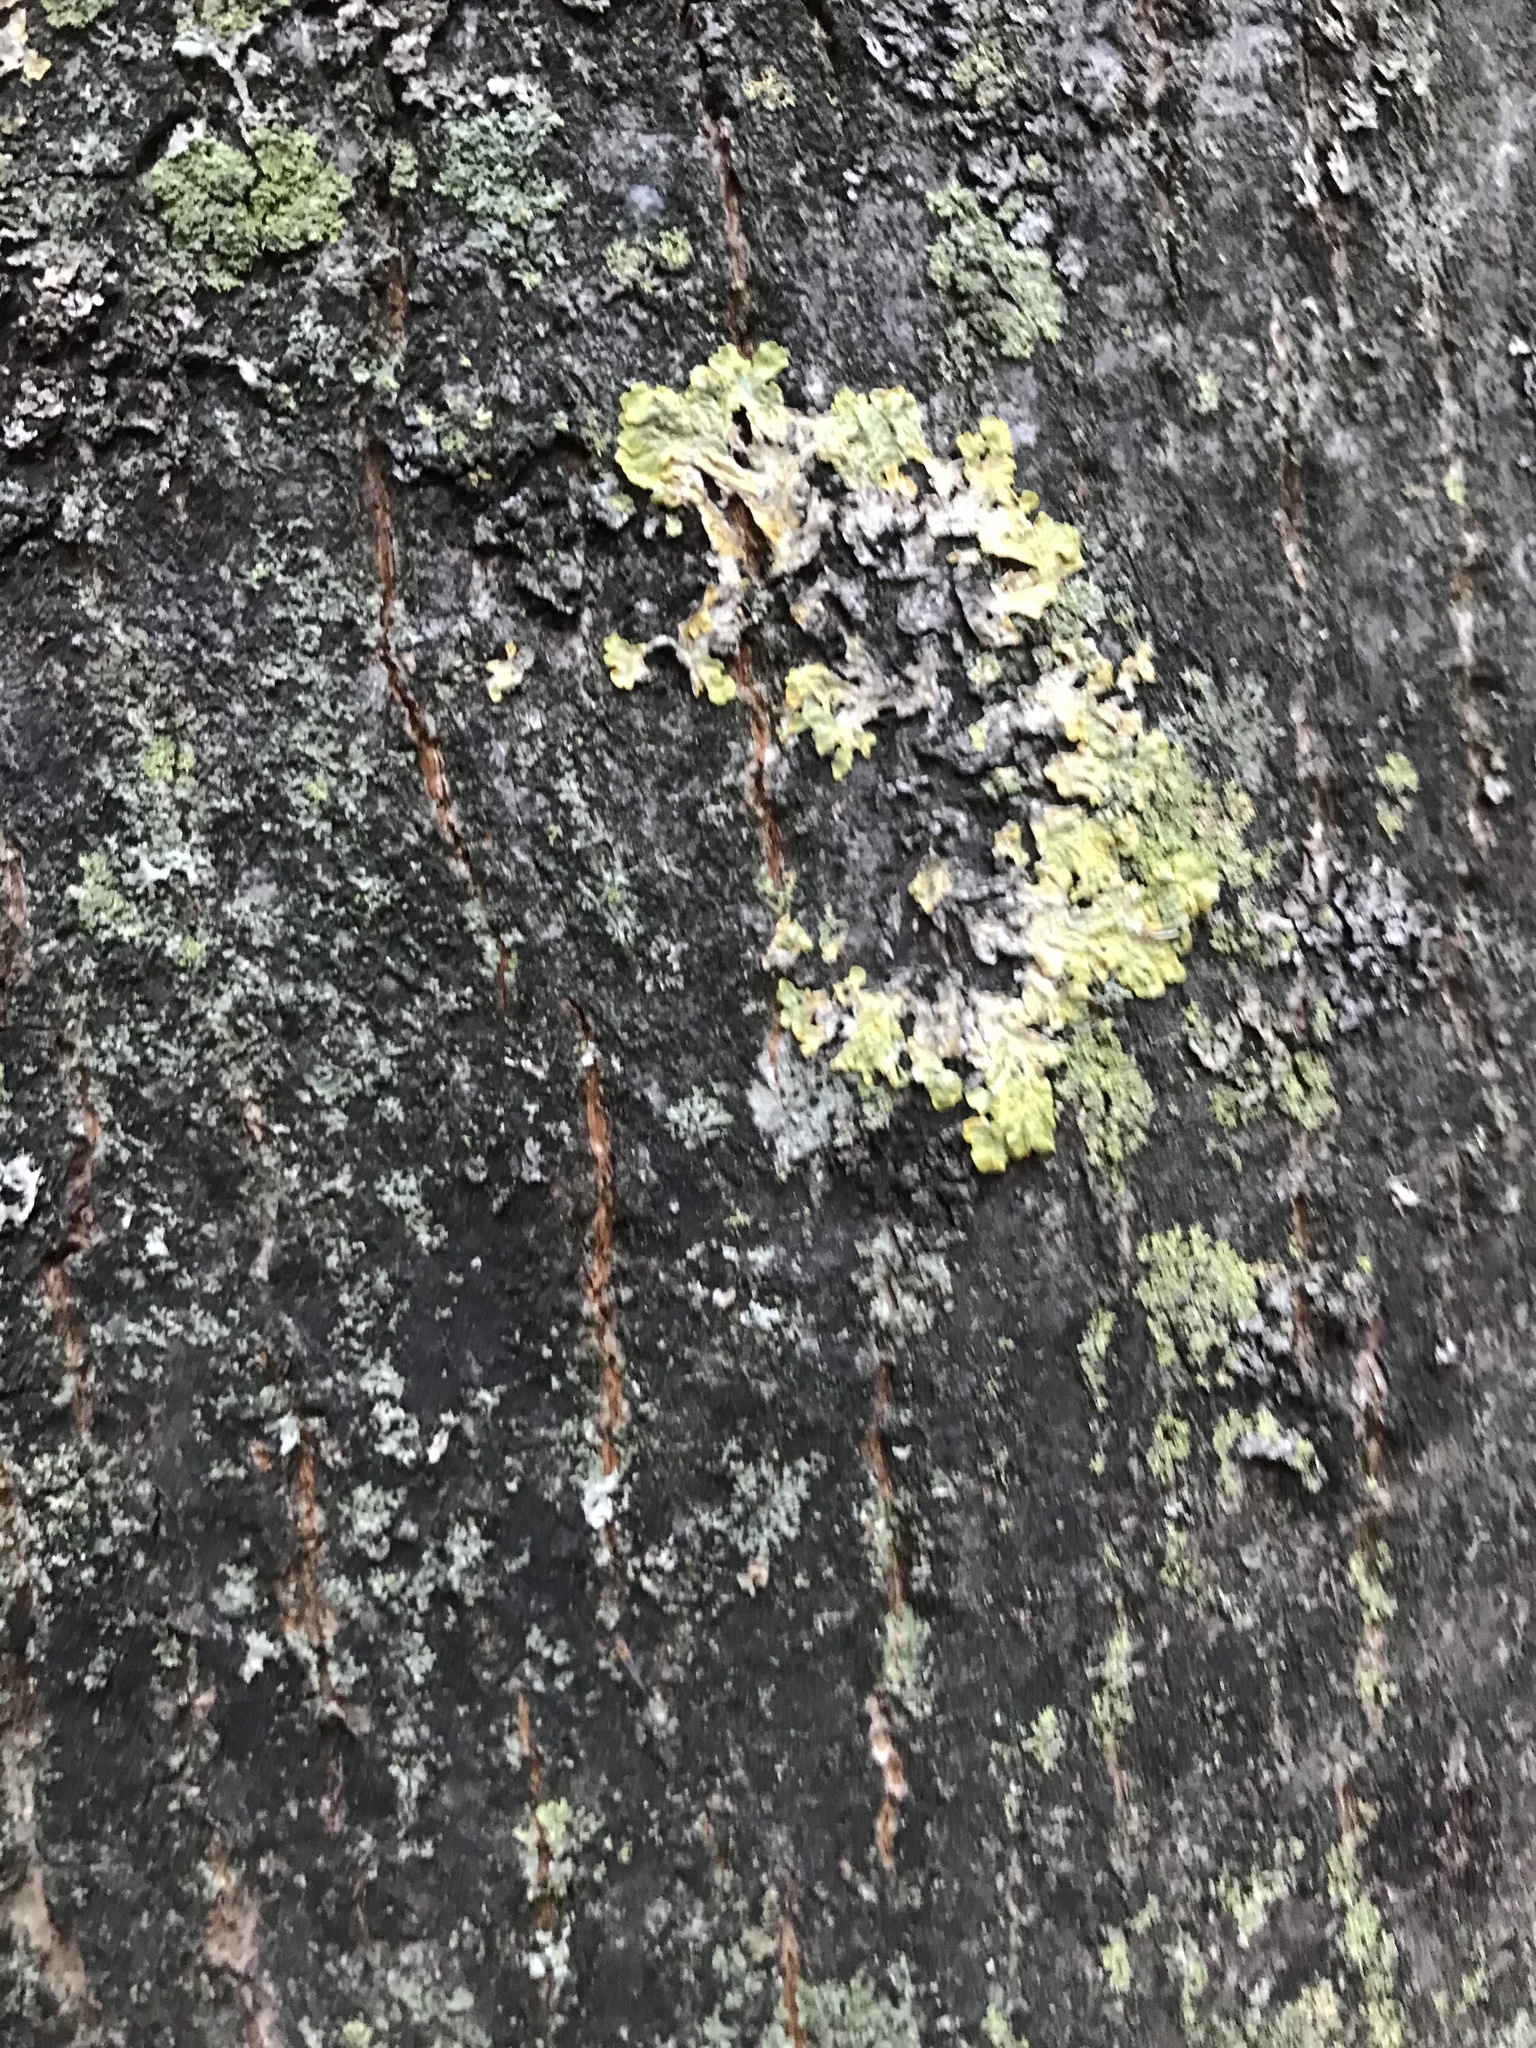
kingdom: Fungi
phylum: Ascomycota
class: Lecanoromycetes
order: Teloschistales
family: Teloschistaceae
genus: Xanthoria
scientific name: Xanthoria parietina
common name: Common orange lichen
